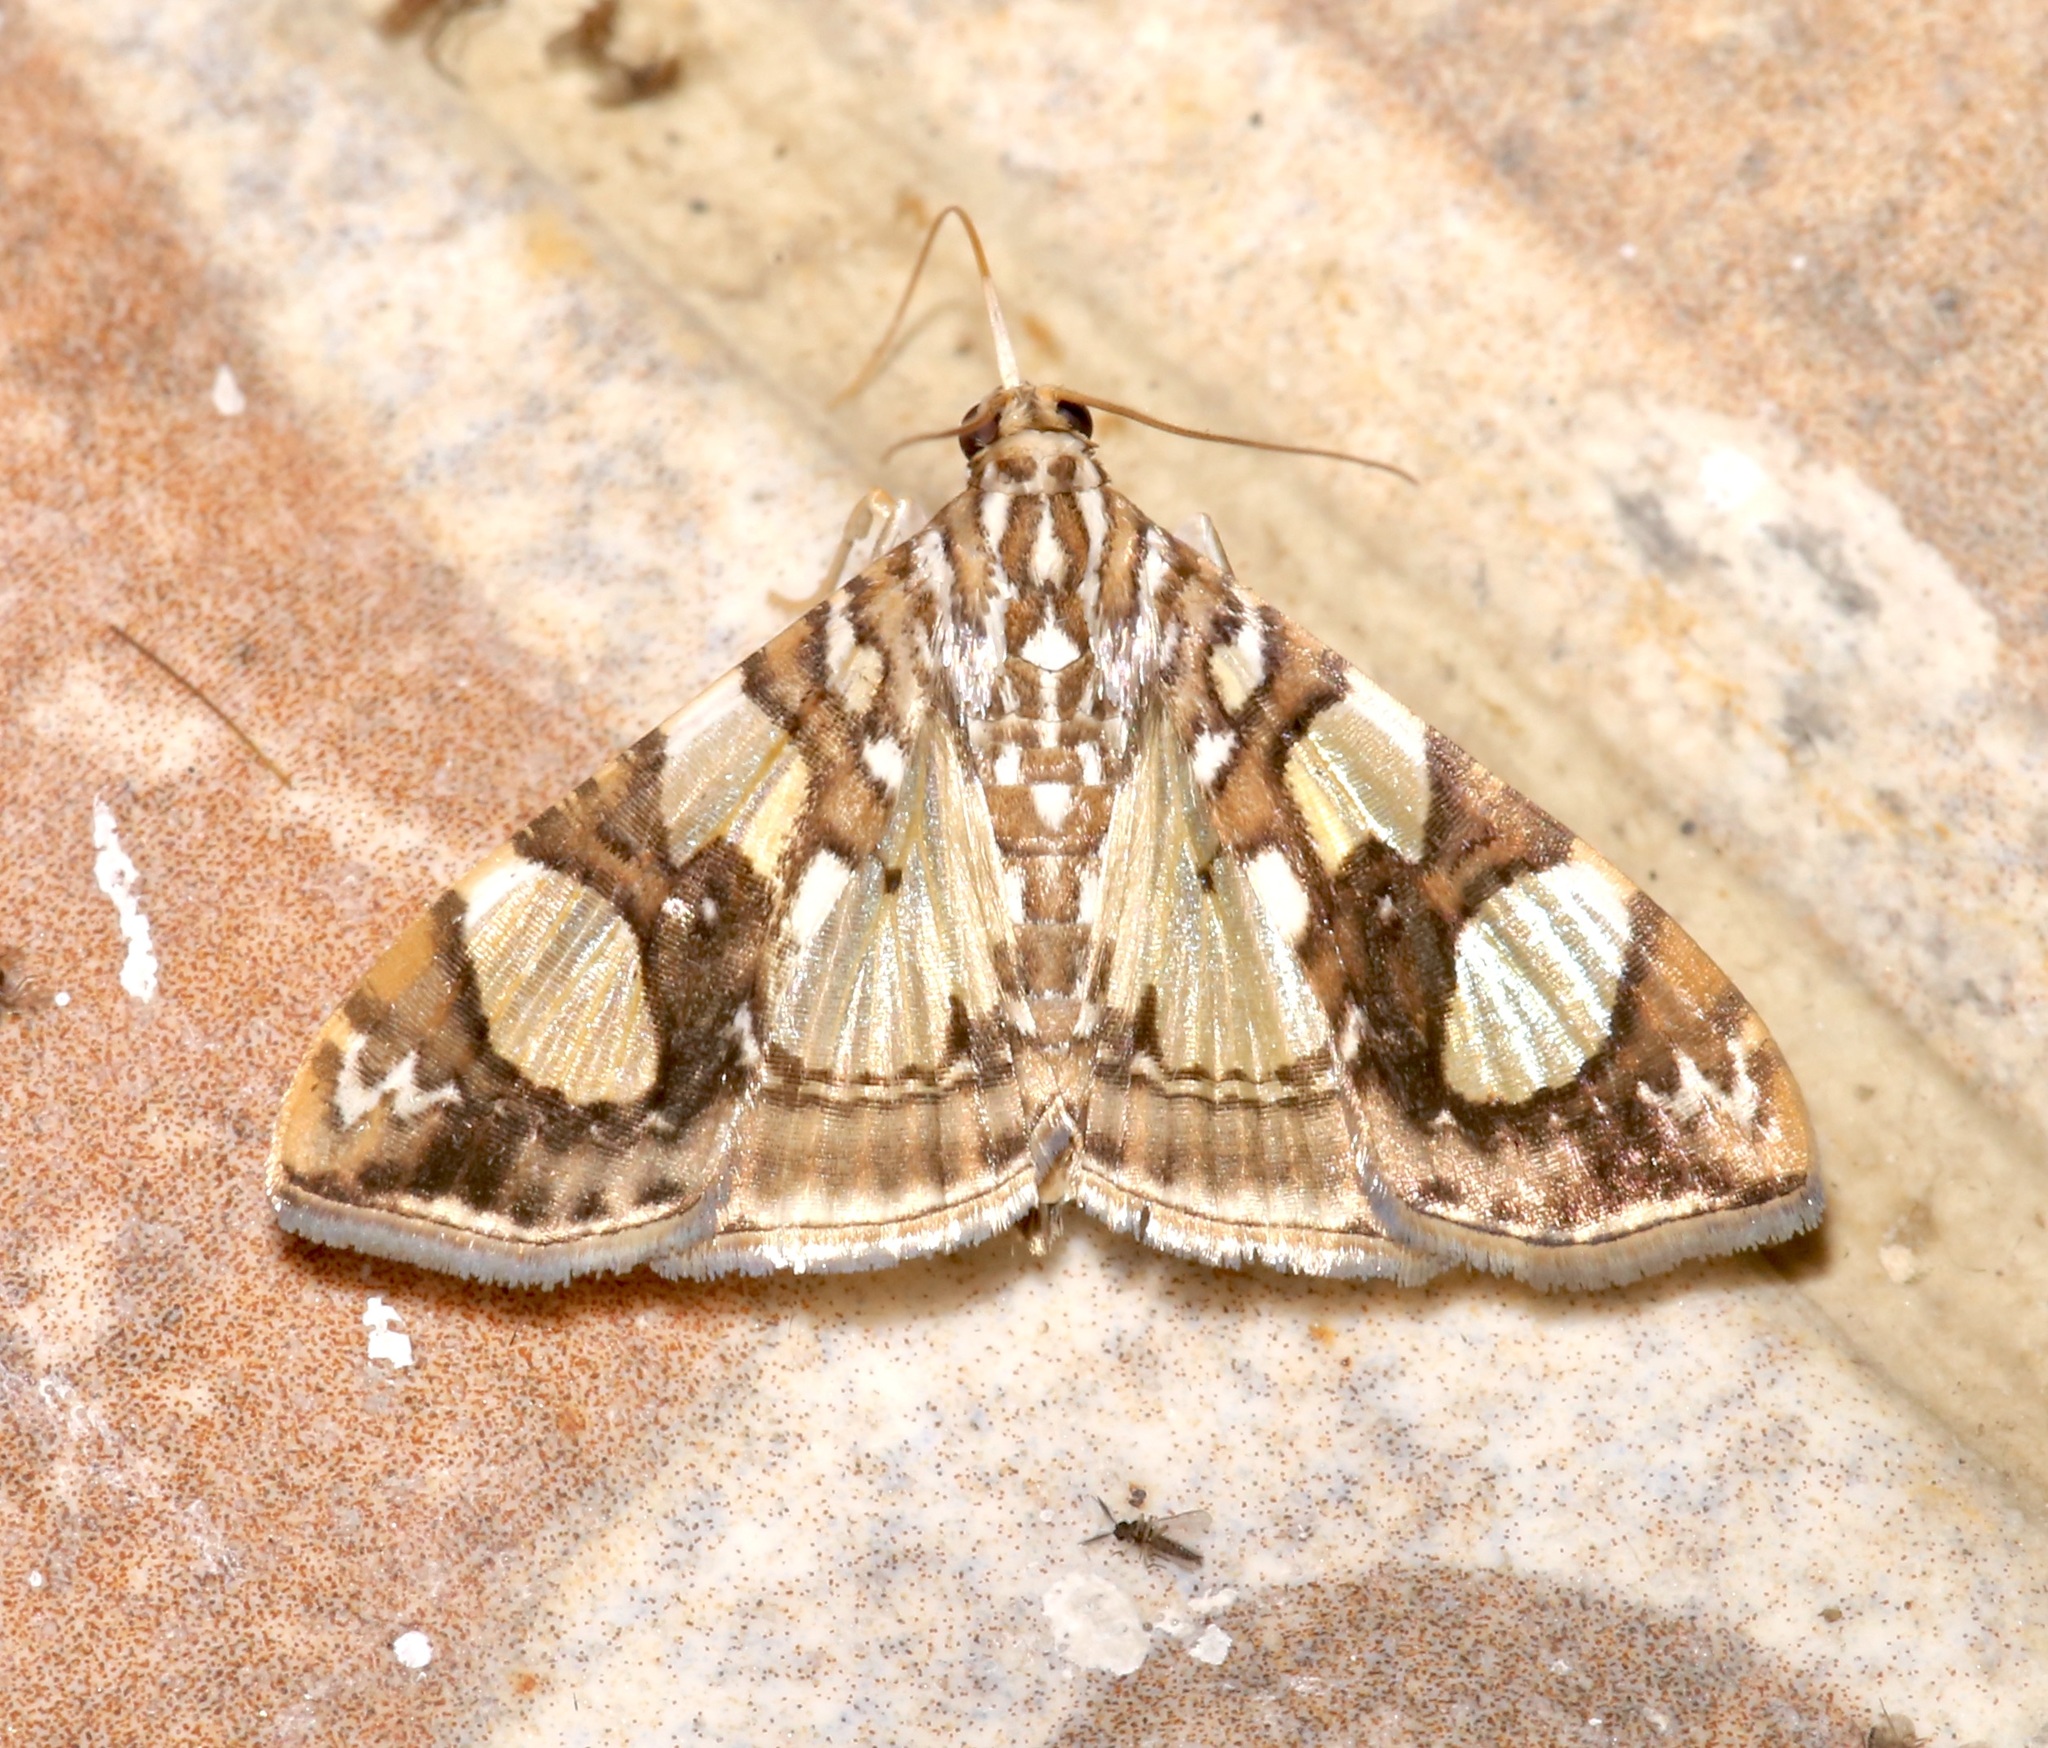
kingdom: Animalia
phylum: Arthropoda
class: Insecta
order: Lepidoptera
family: Crambidae
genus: Glyphodes
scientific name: Glyphodes sibillalis
